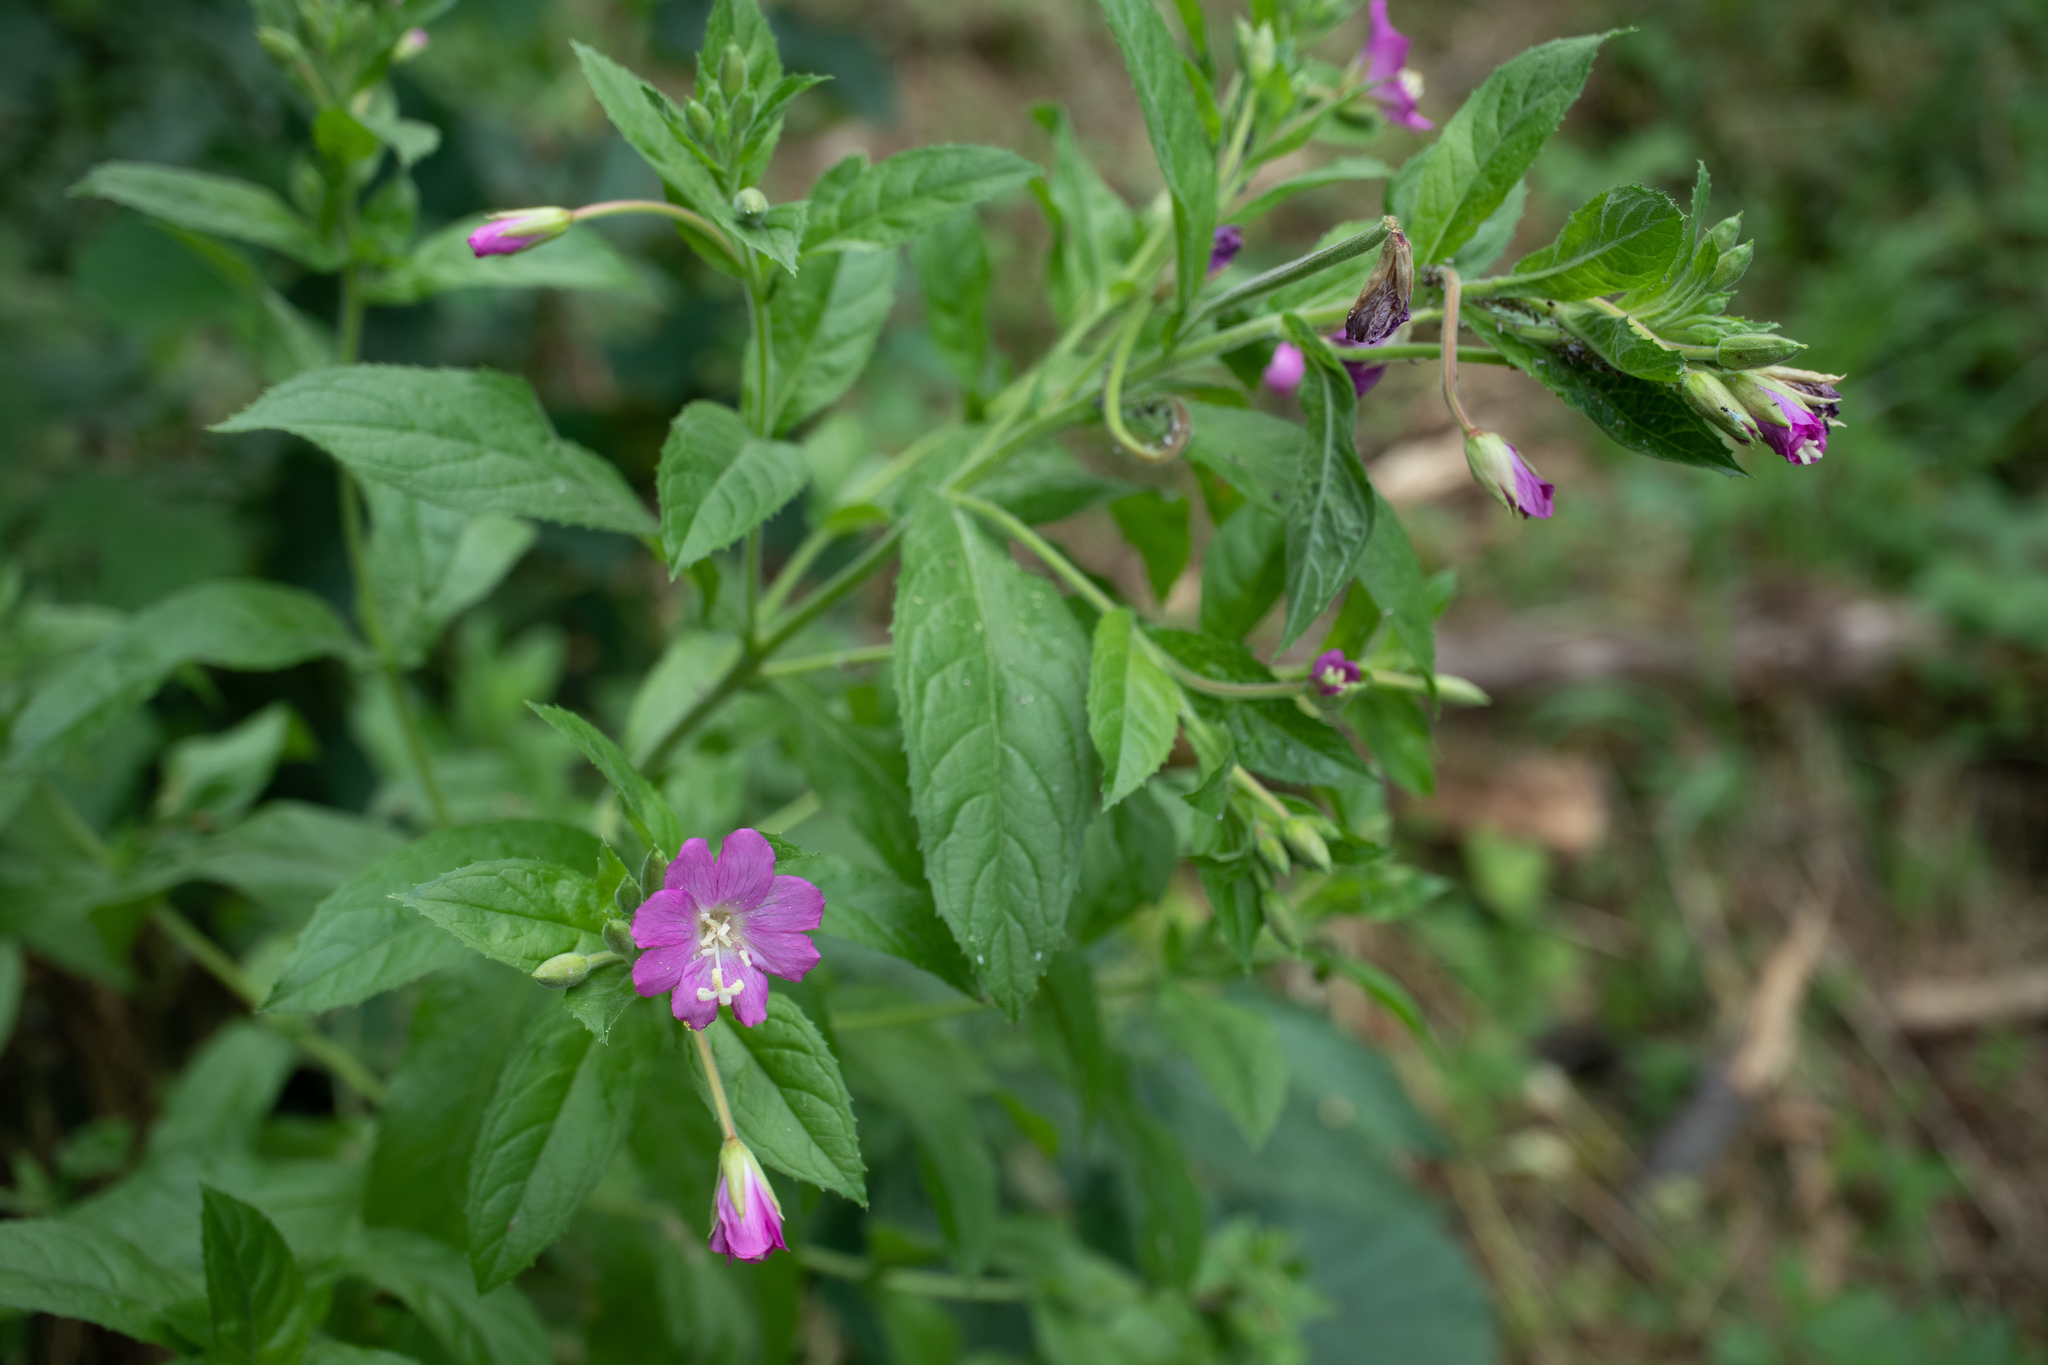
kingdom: Plantae
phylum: Tracheophyta
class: Magnoliopsida
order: Myrtales
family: Onagraceae
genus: Epilobium
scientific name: Epilobium hirsutum
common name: Great willowherb
